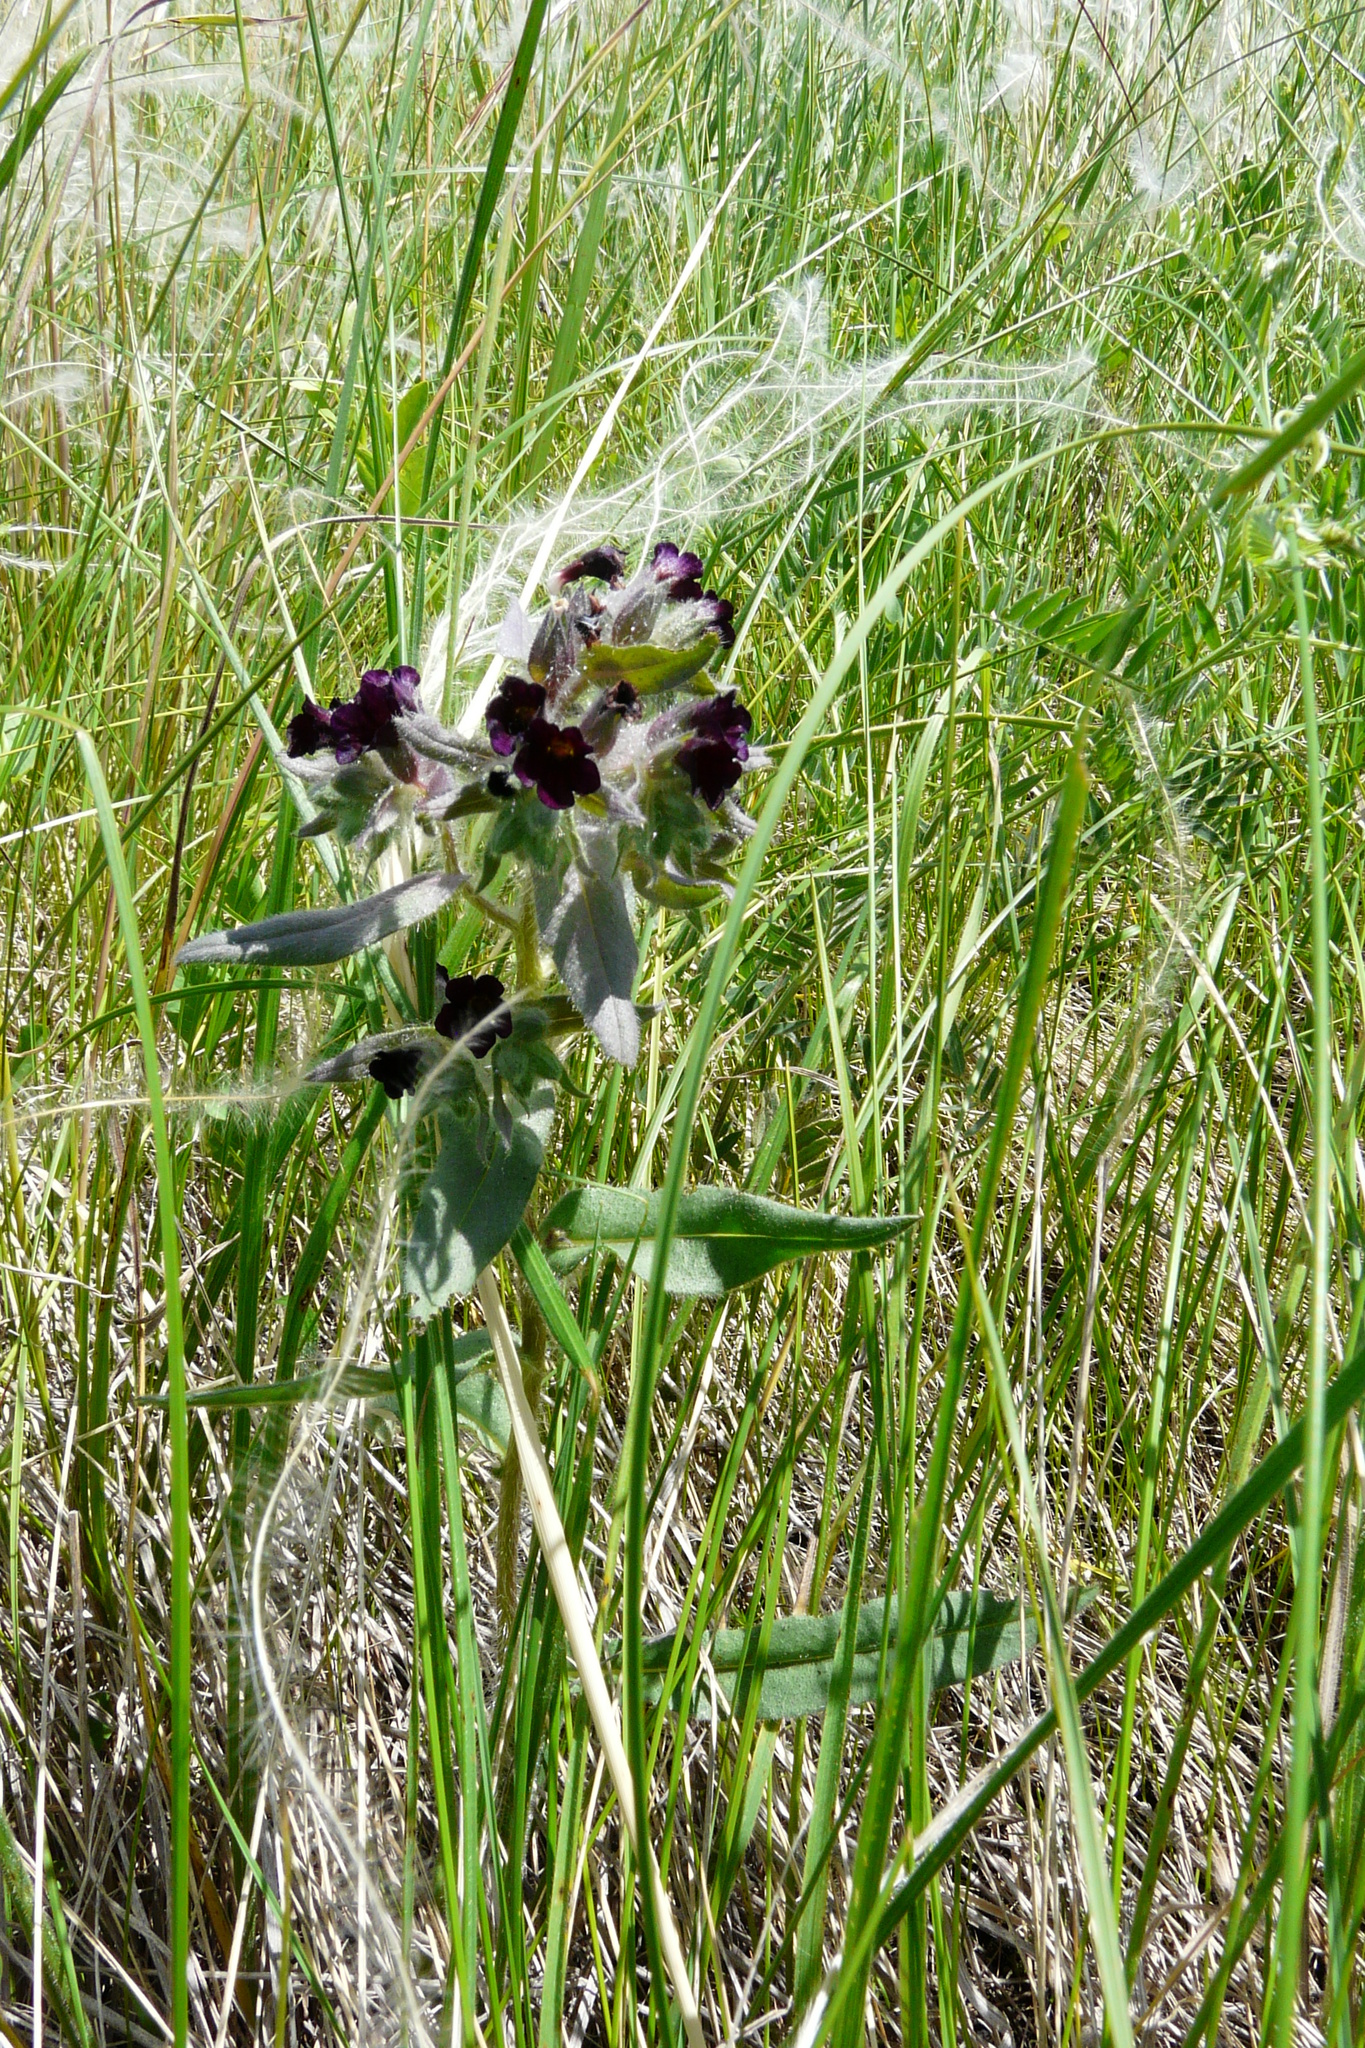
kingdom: Plantae
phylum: Tracheophyta
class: Magnoliopsida
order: Boraginales
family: Boraginaceae
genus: Nonea
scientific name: Nonea pulla
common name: Brown nonea
